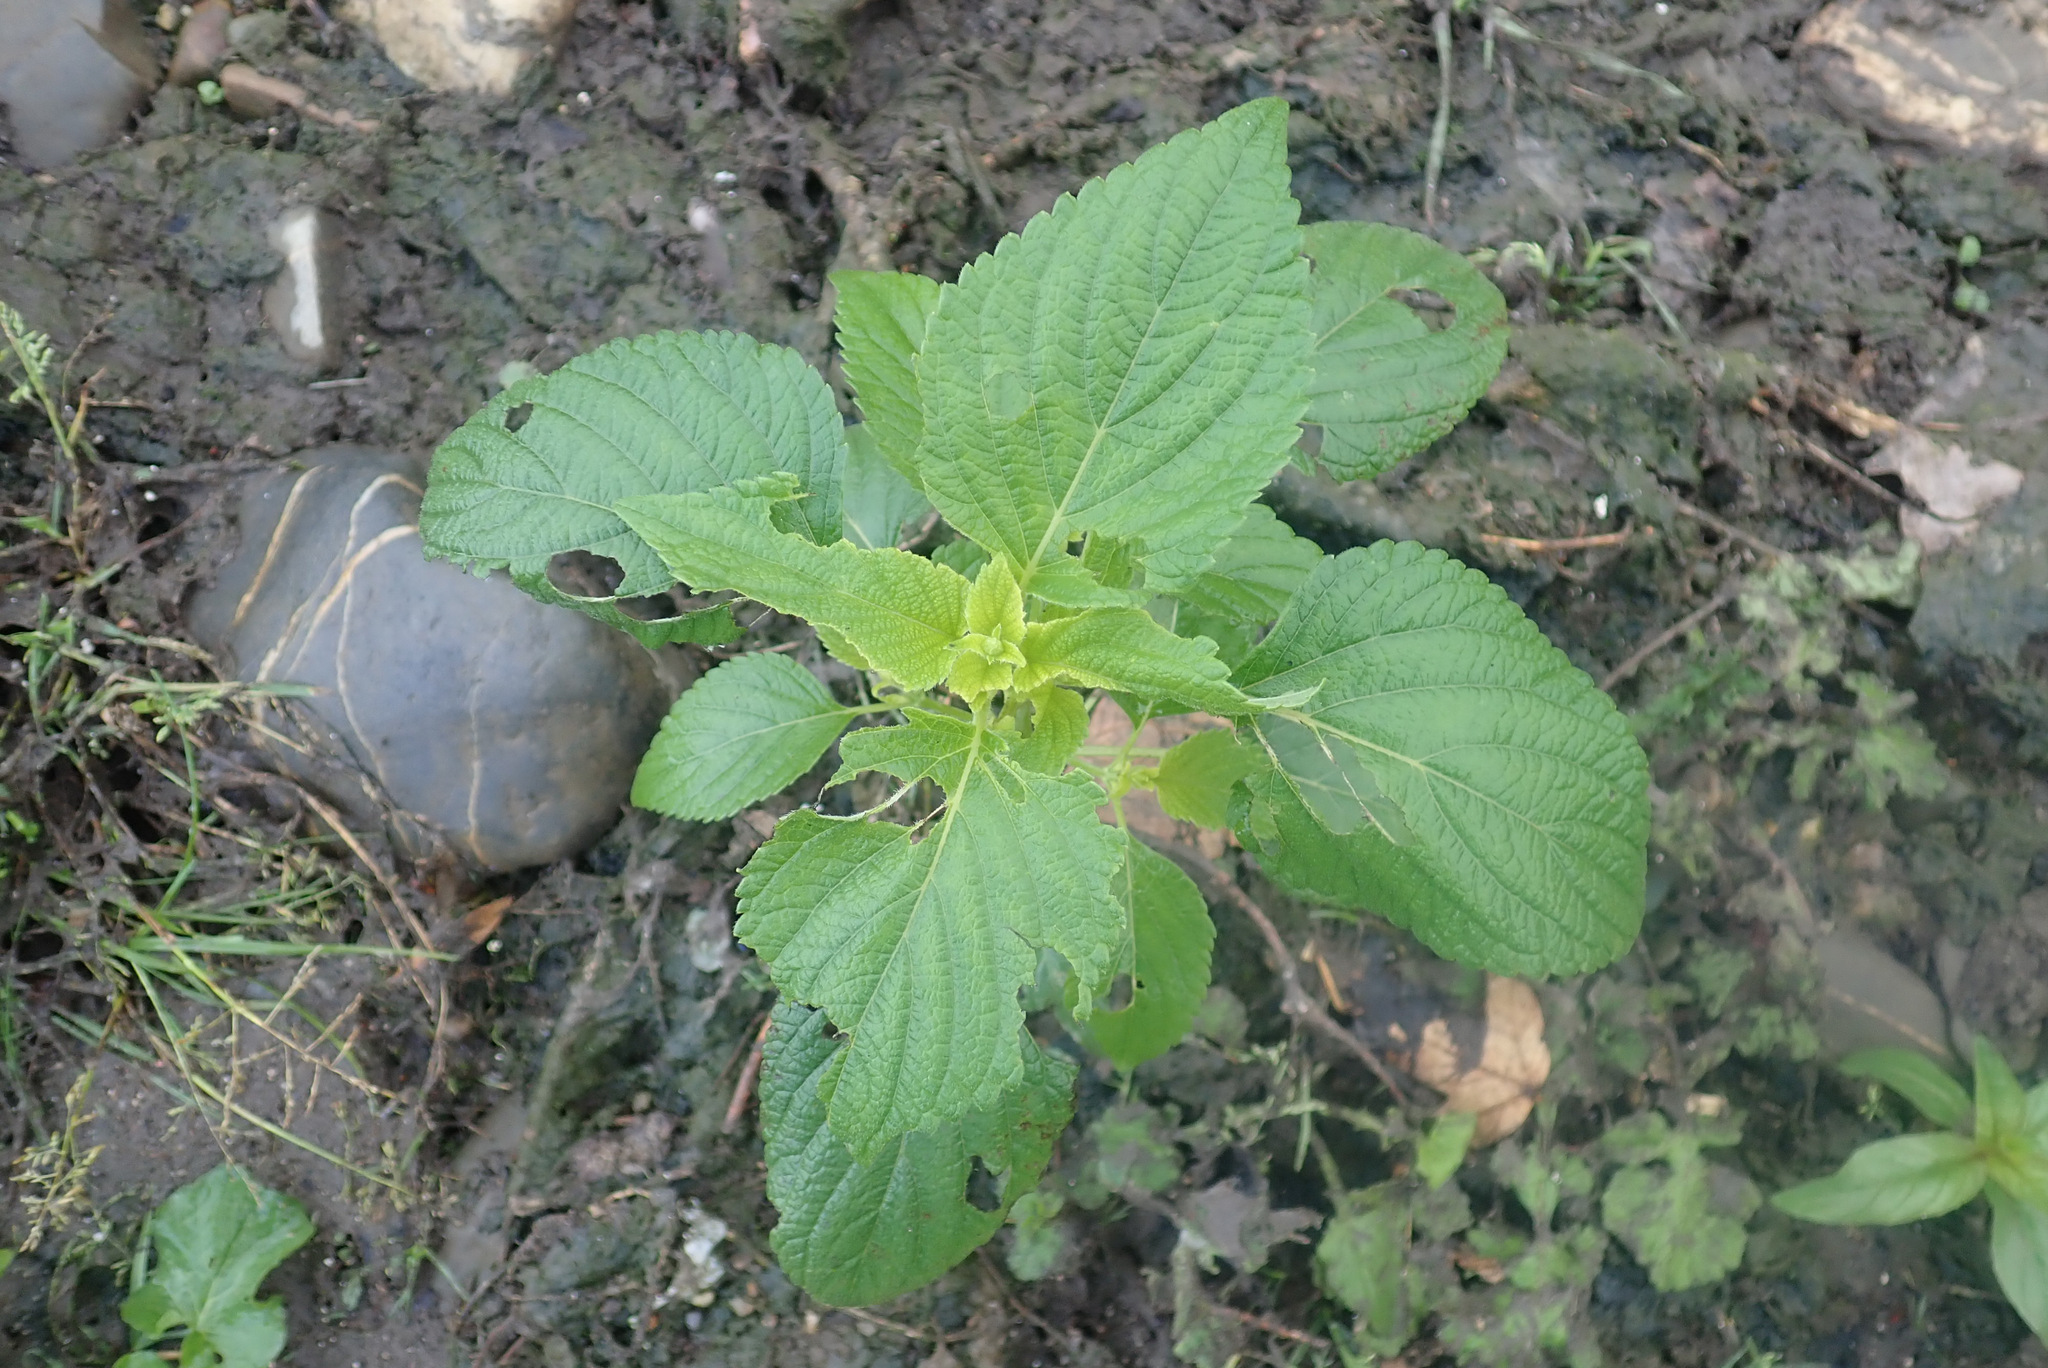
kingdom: Plantae
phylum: Tracheophyta
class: Magnoliopsida
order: Lamiales
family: Lamiaceae
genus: Salvia
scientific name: Salvia hispanica
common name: Chia
